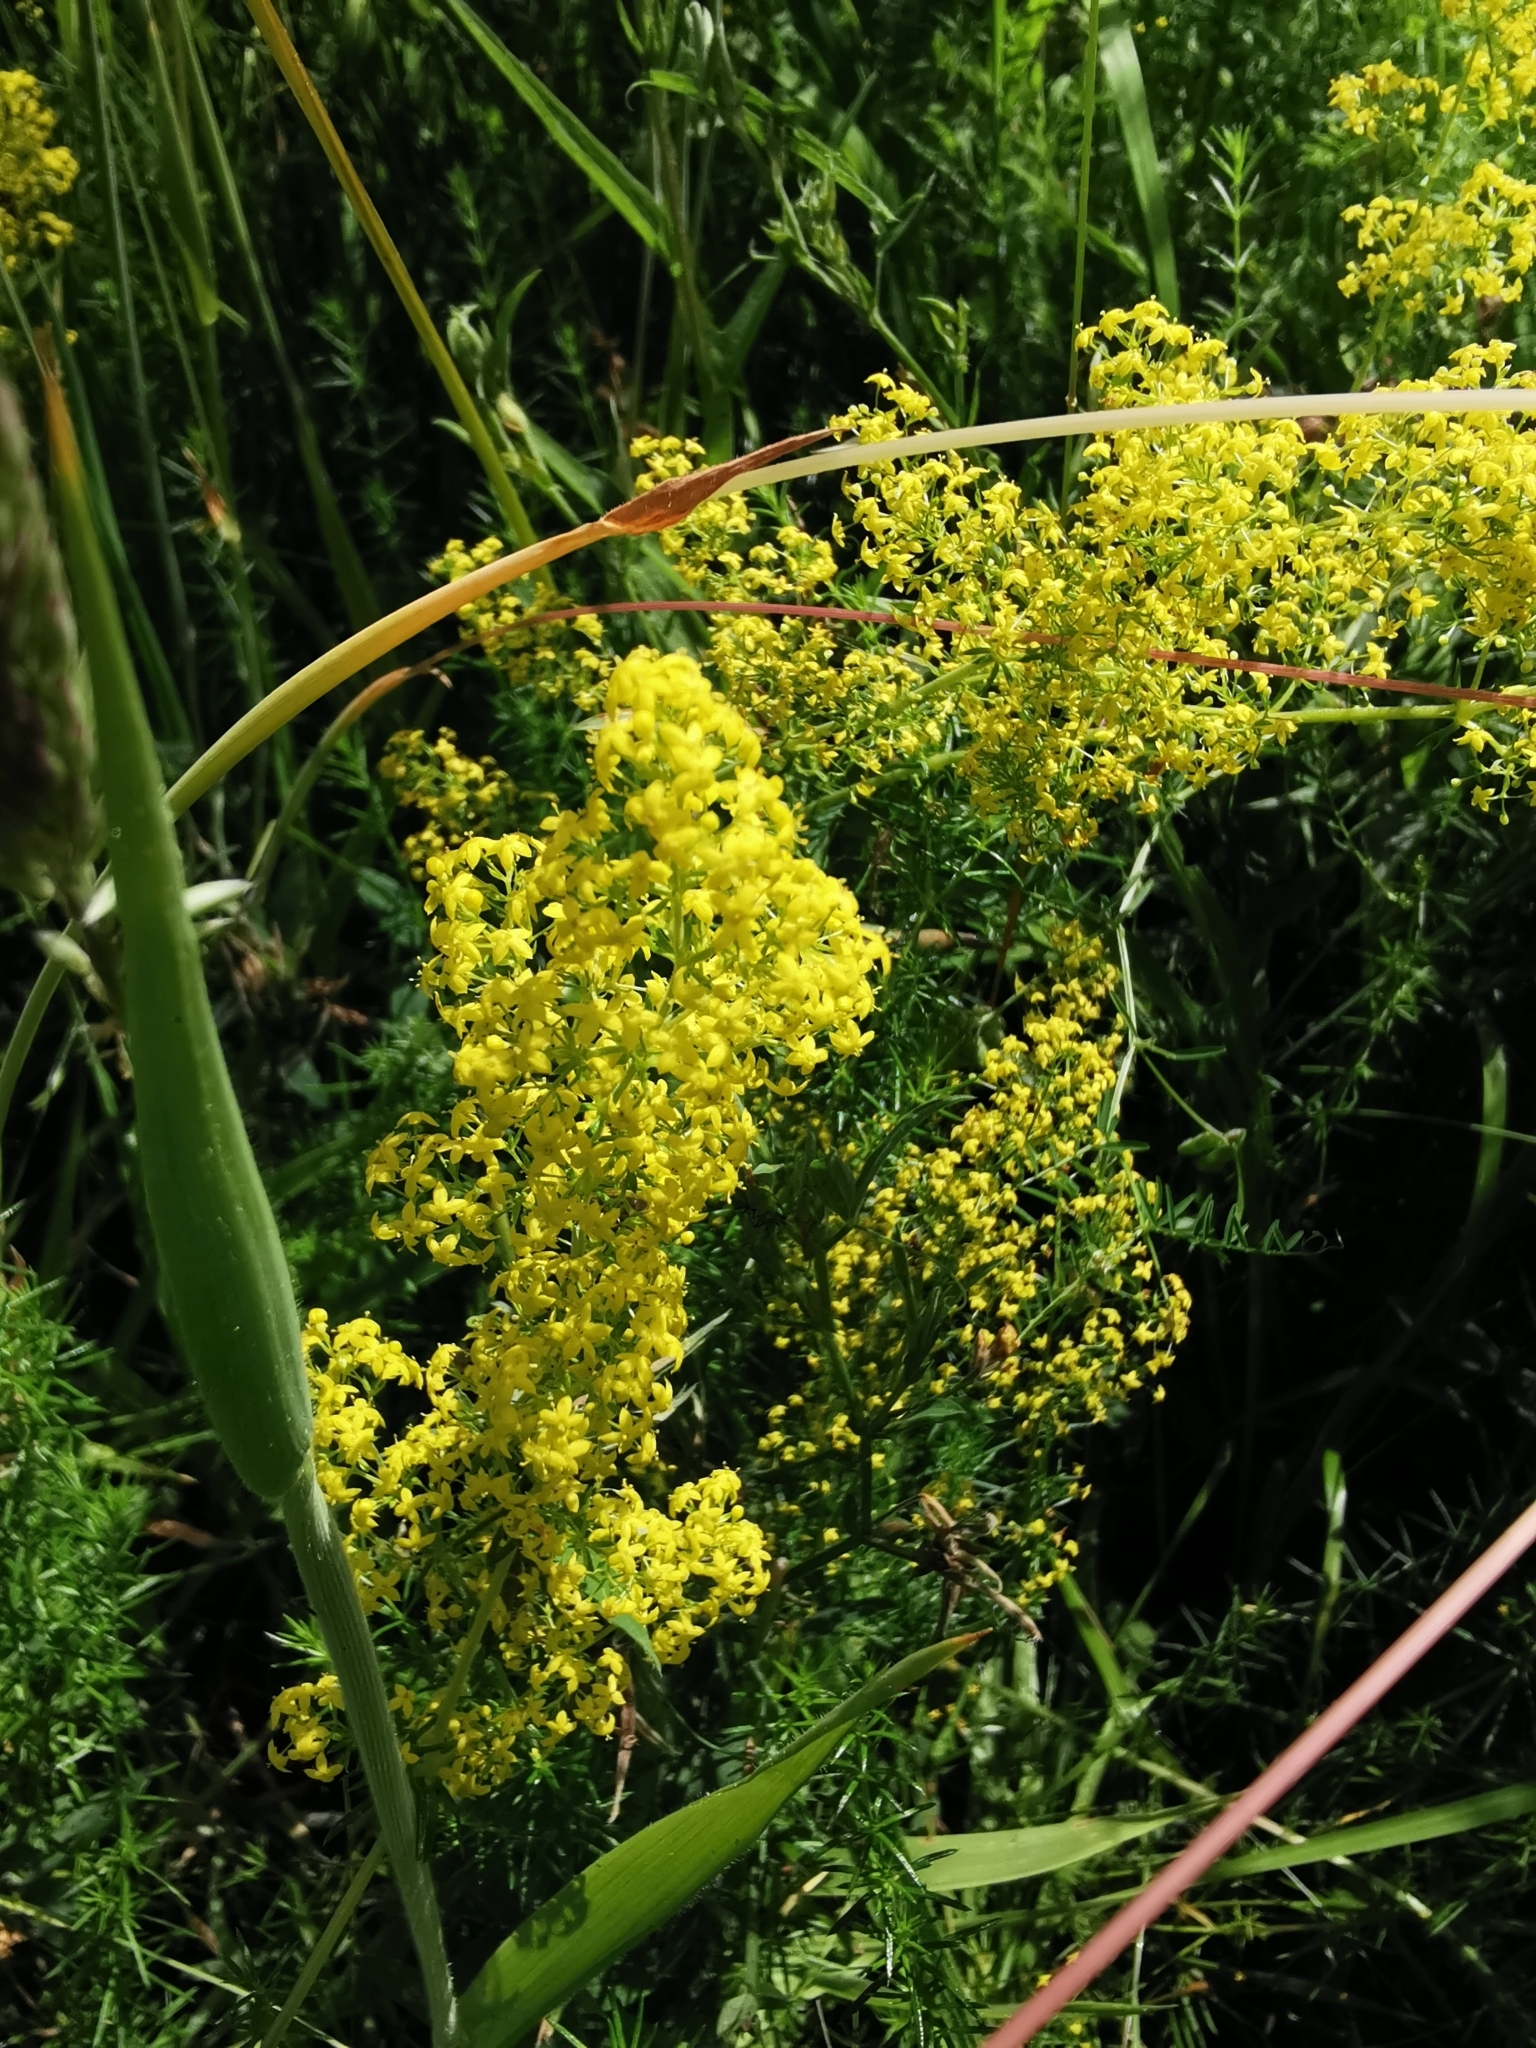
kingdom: Plantae
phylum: Tracheophyta
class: Magnoliopsida
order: Gentianales
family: Rubiaceae
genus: Galium
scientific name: Galium verum
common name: Lady's bedstraw
